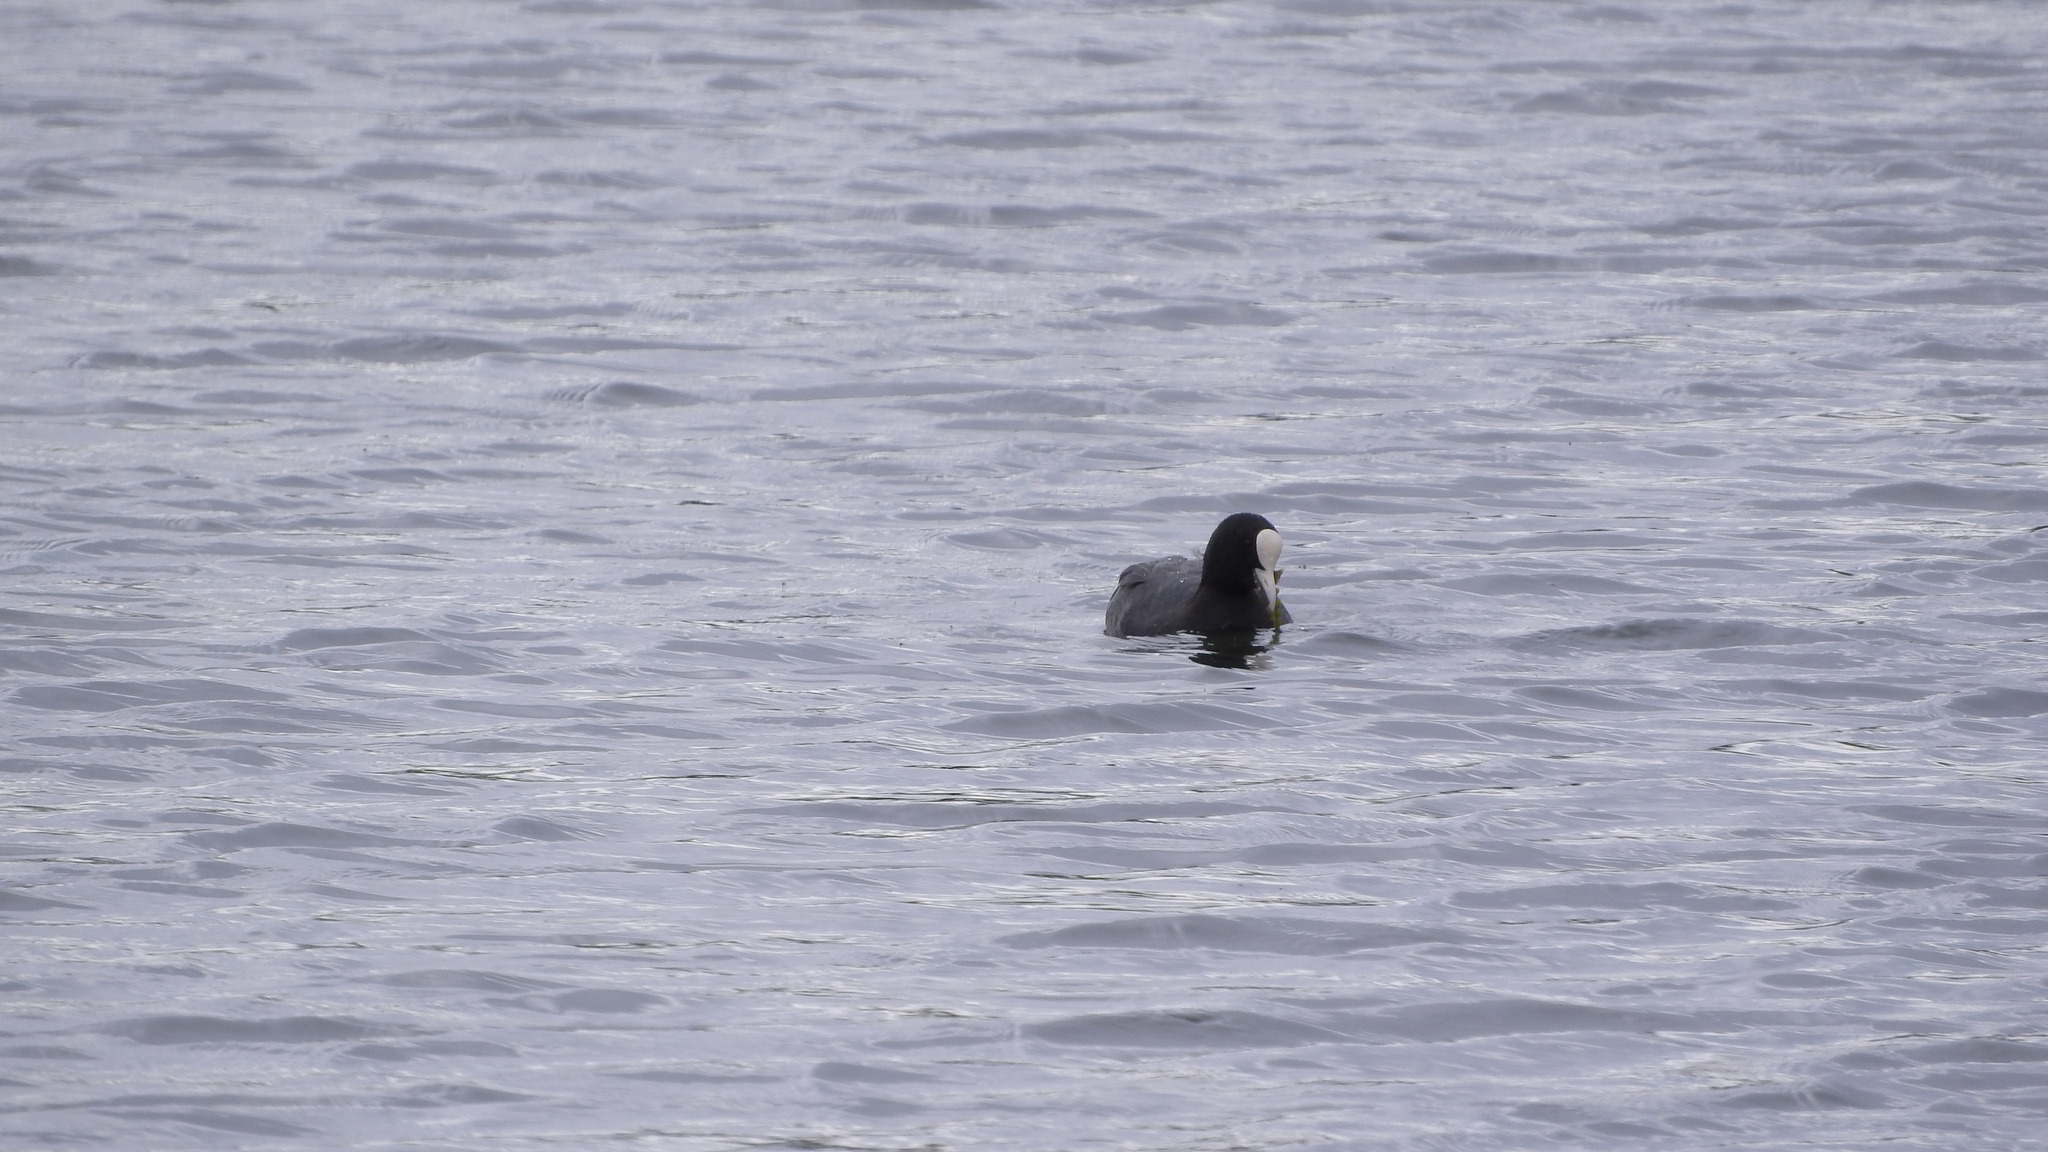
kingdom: Animalia
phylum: Chordata
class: Aves
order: Gruiformes
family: Rallidae
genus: Fulica
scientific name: Fulica atra
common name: Eurasian coot
